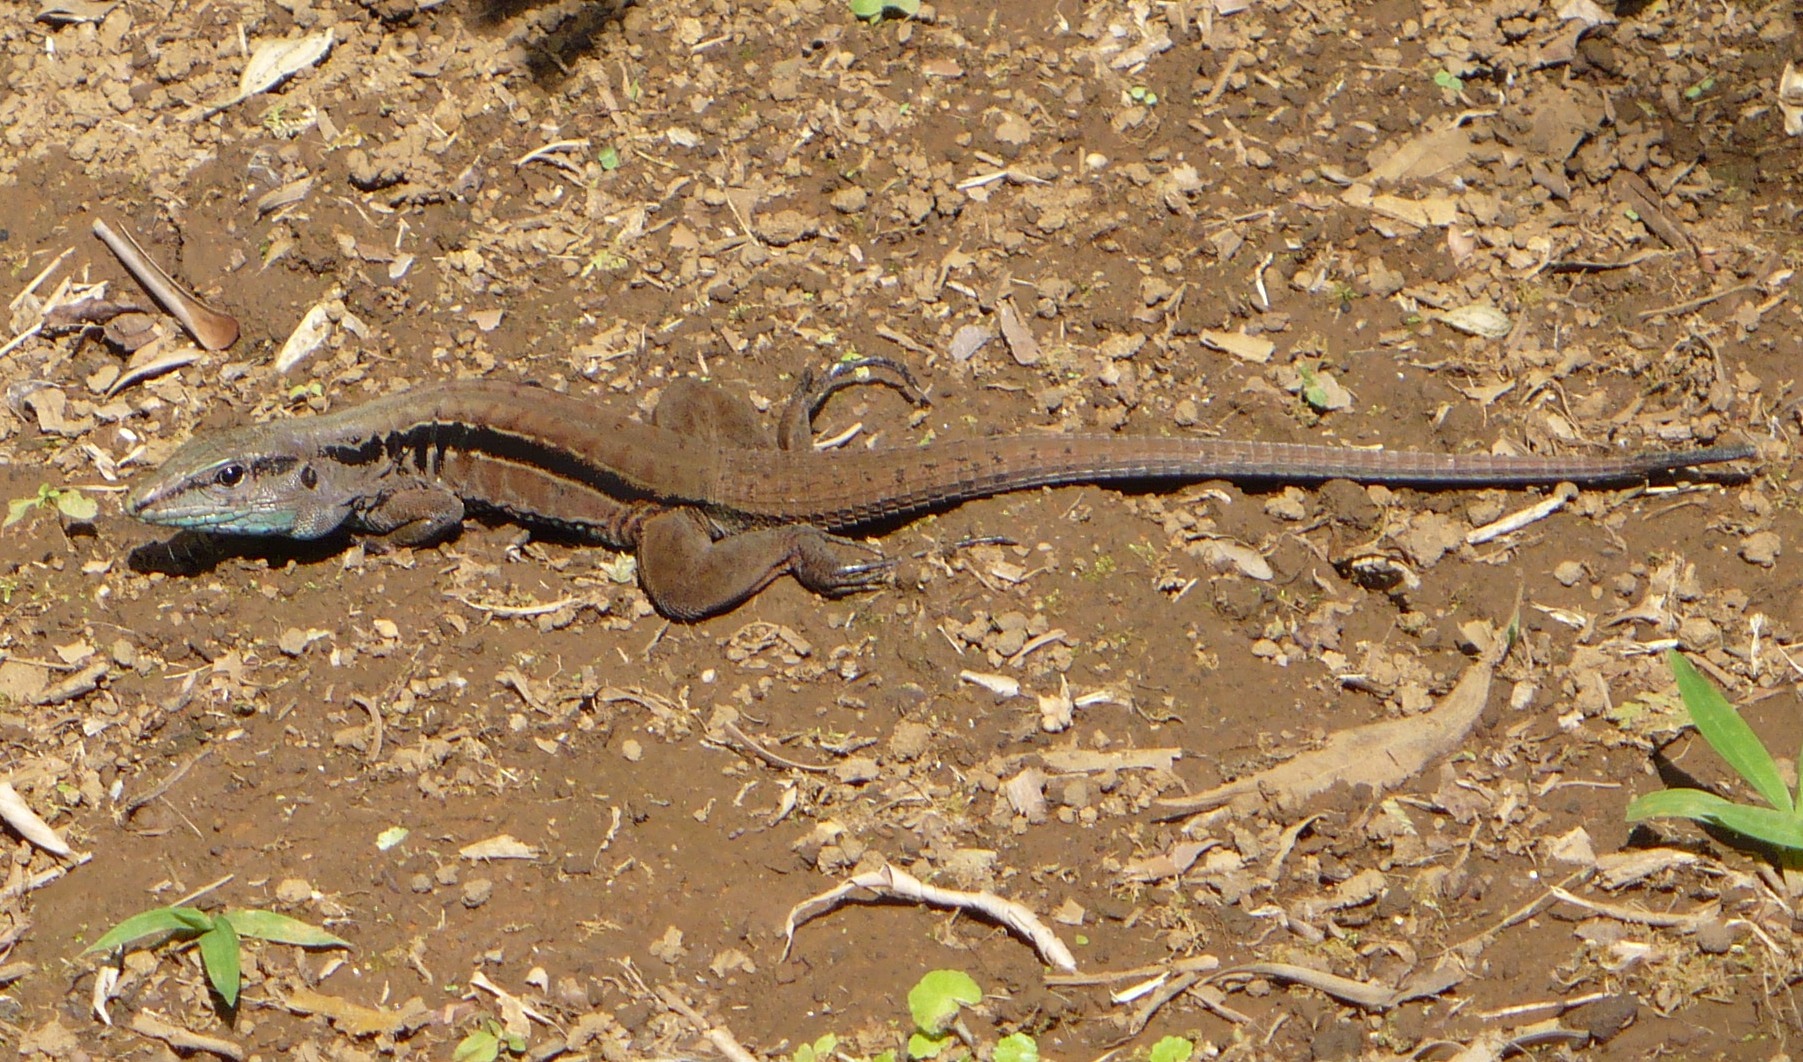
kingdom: Animalia
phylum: Chordata
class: Squamata
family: Teiidae
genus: Holcosus
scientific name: Holcosus festivus
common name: Middle american ameiva
